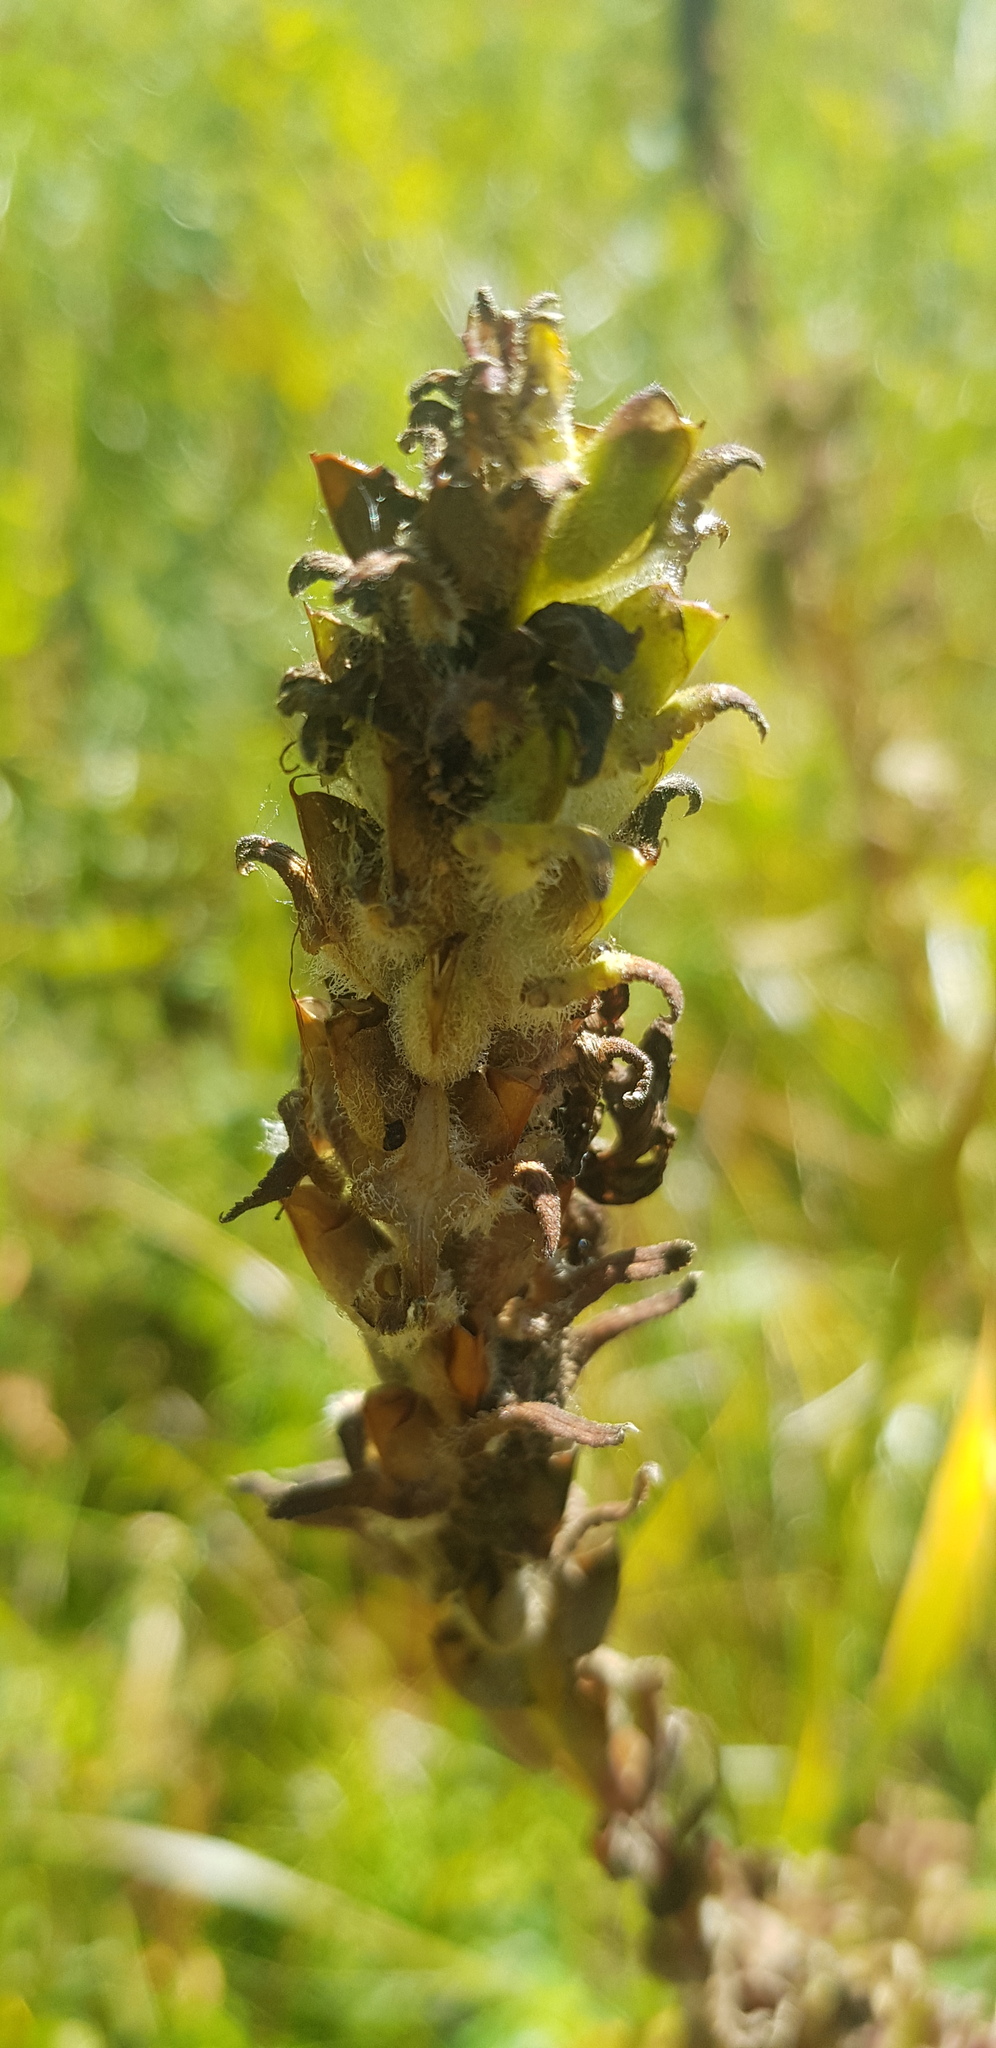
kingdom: Plantae
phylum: Tracheophyta
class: Magnoliopsida
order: Lamiales
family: Orobanchaceae
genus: Pedicularis
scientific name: Pedicularis resupinata
